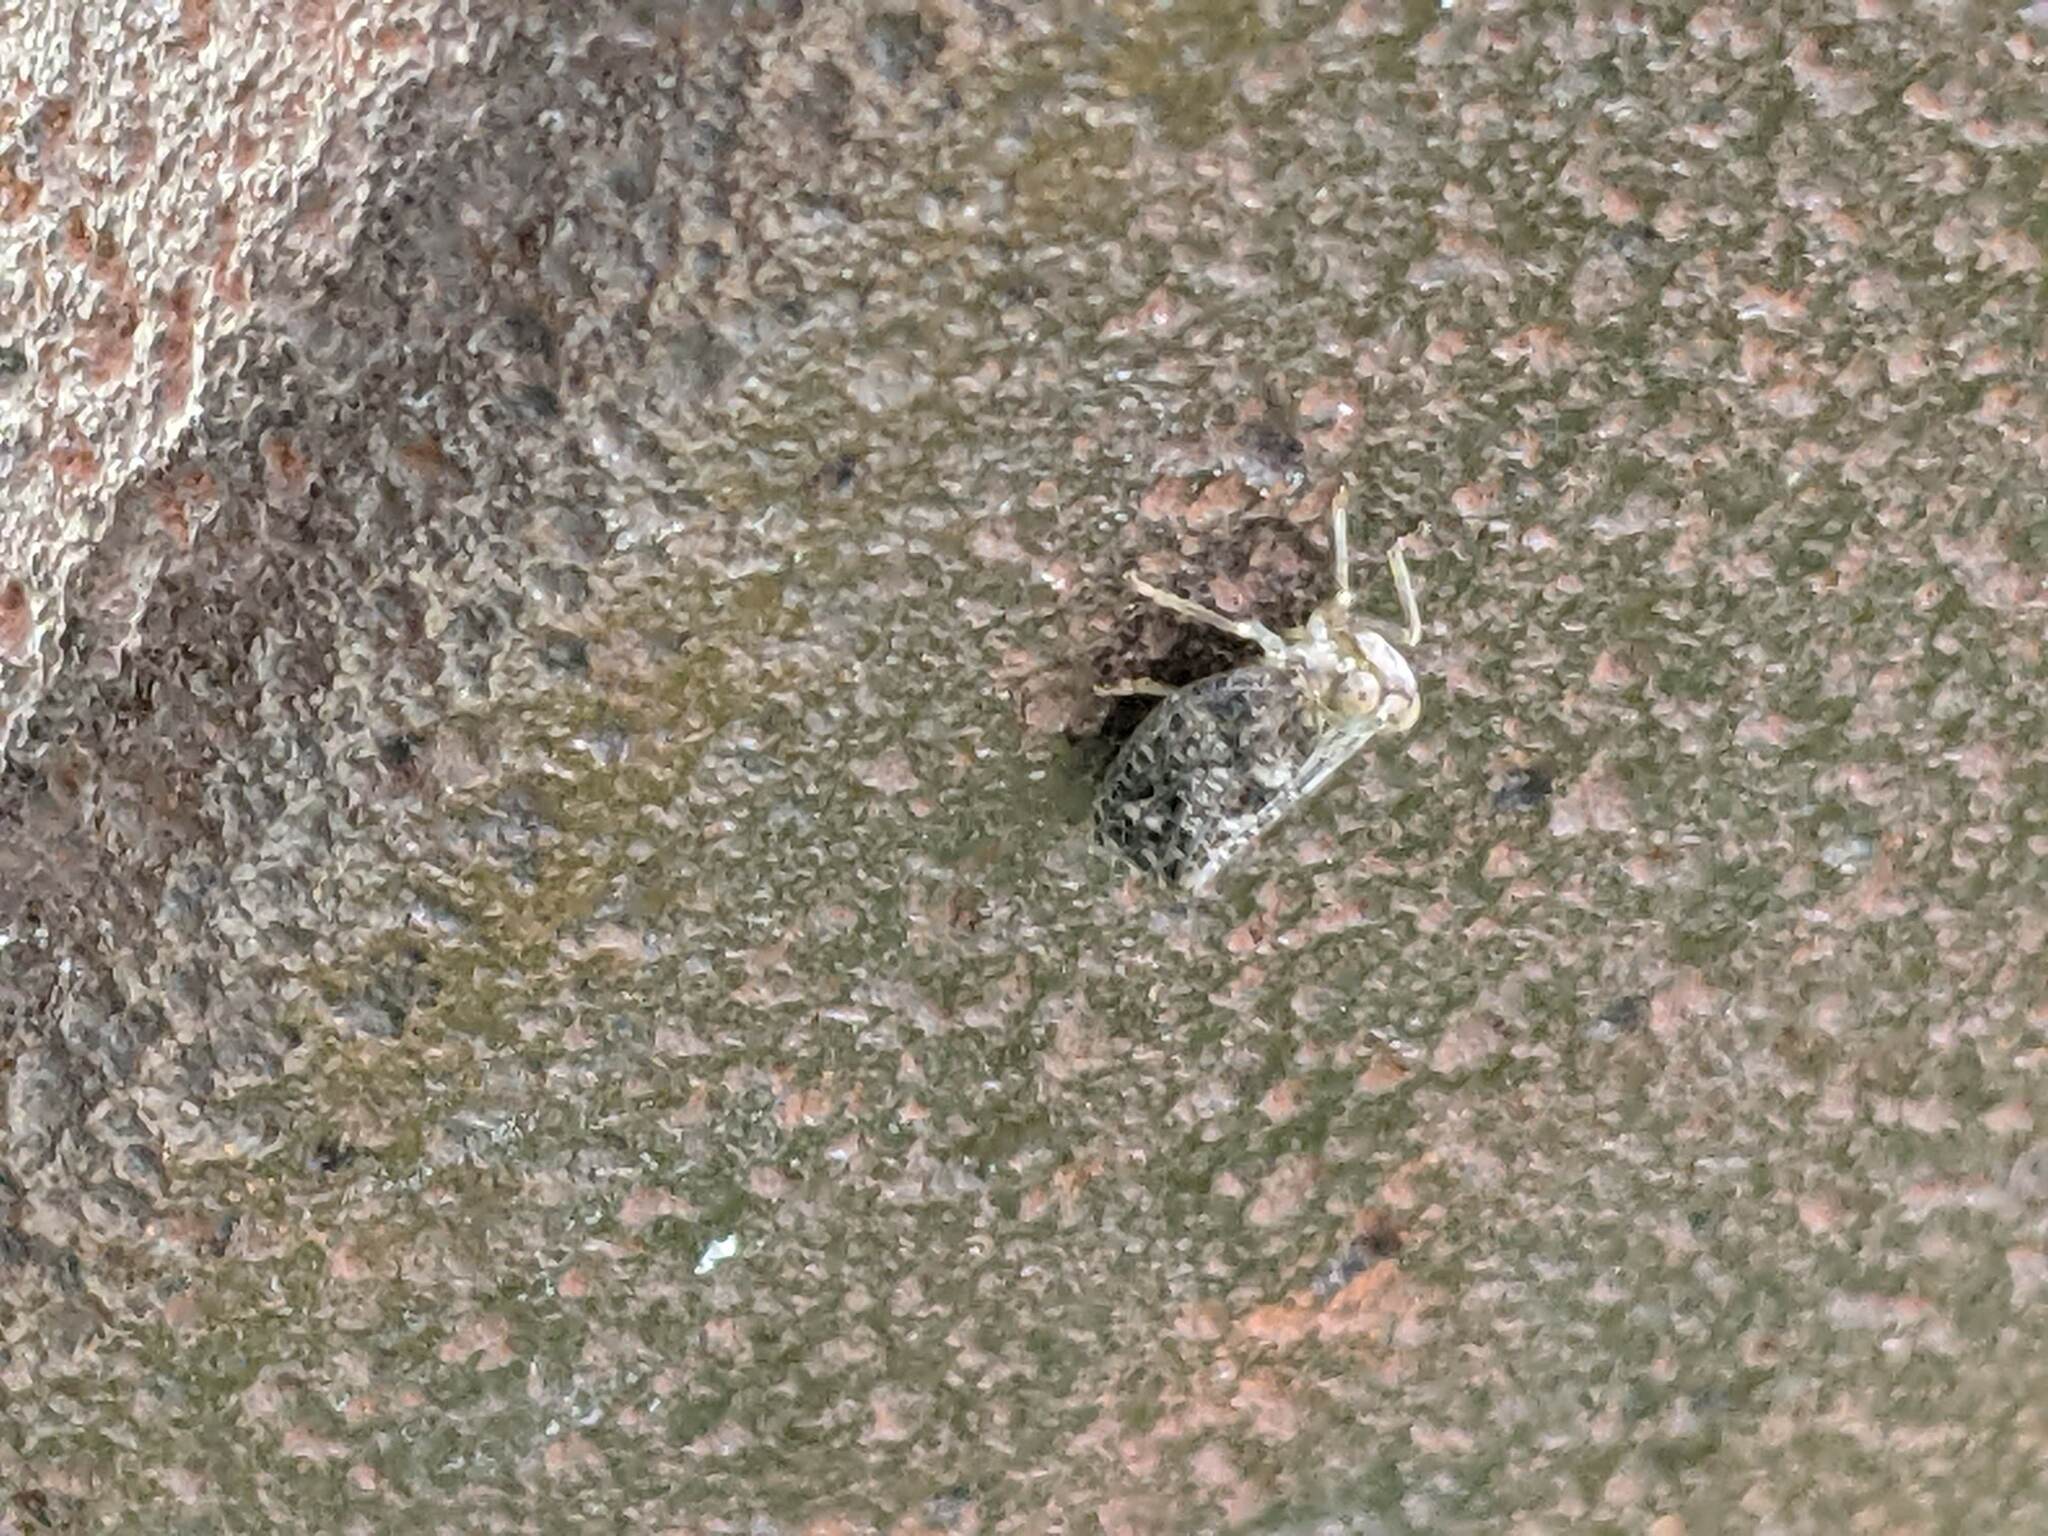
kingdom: Animalia
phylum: Arthropoda
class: Insecta
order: Hemiptera
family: Issidae
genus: Thionia
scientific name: Thionia bullata
